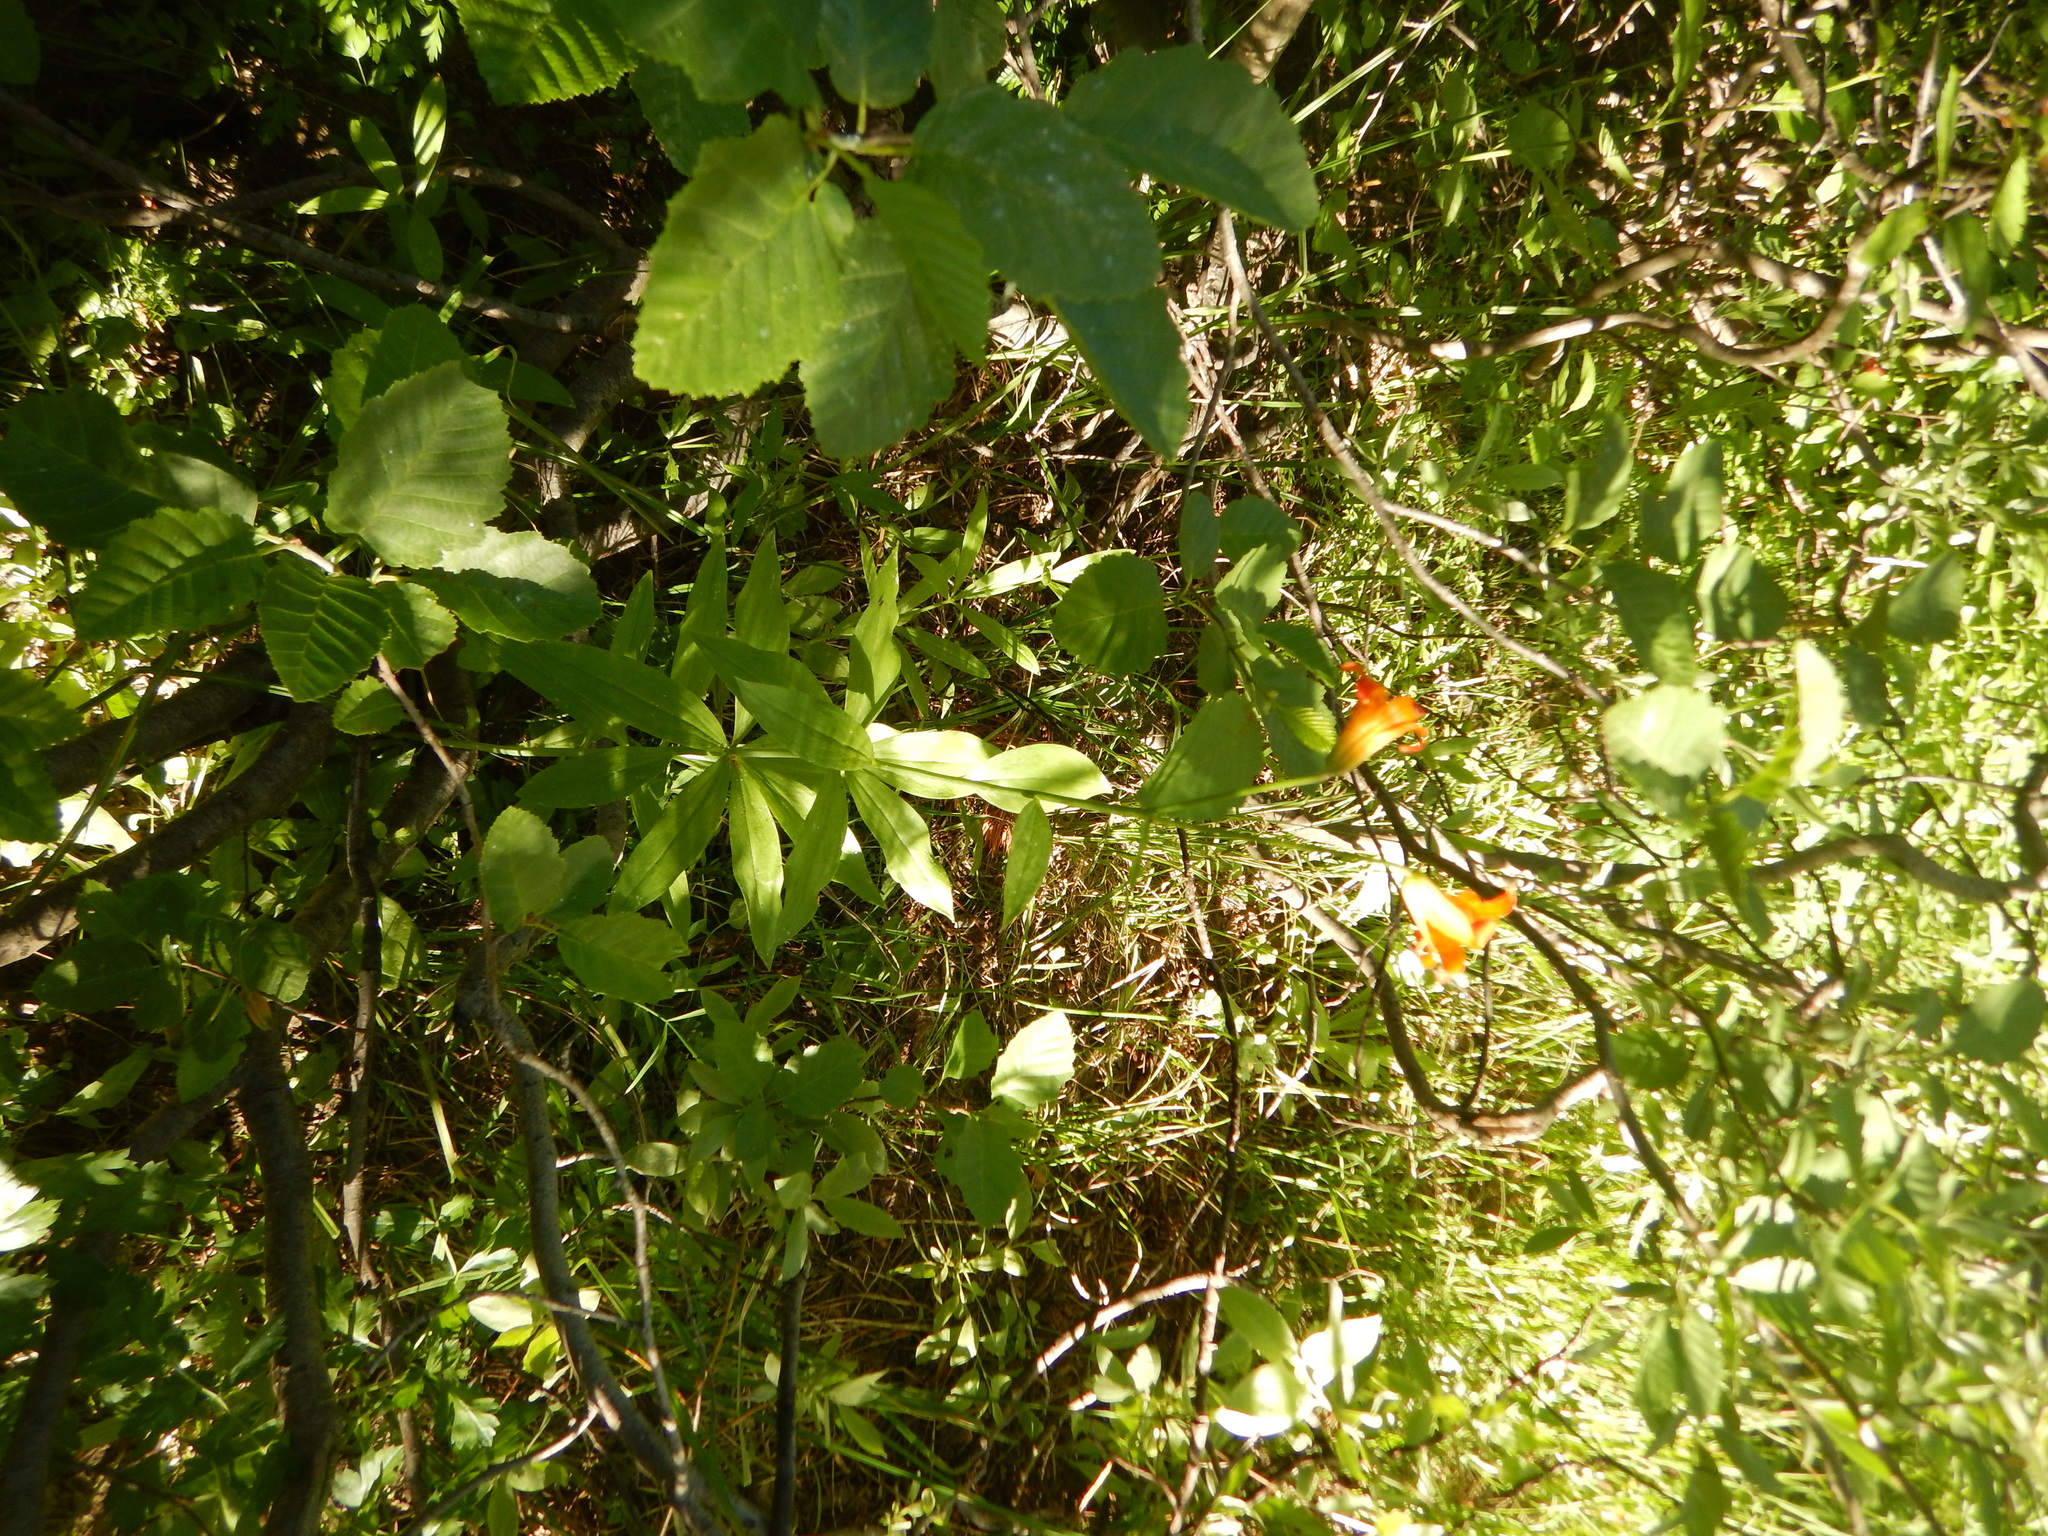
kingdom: Plantae
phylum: Tracheophyta
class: Liliopsida
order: Liliales
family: Liliaceae
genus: Lilium
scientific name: Lilium parvum
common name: Alpine lily
